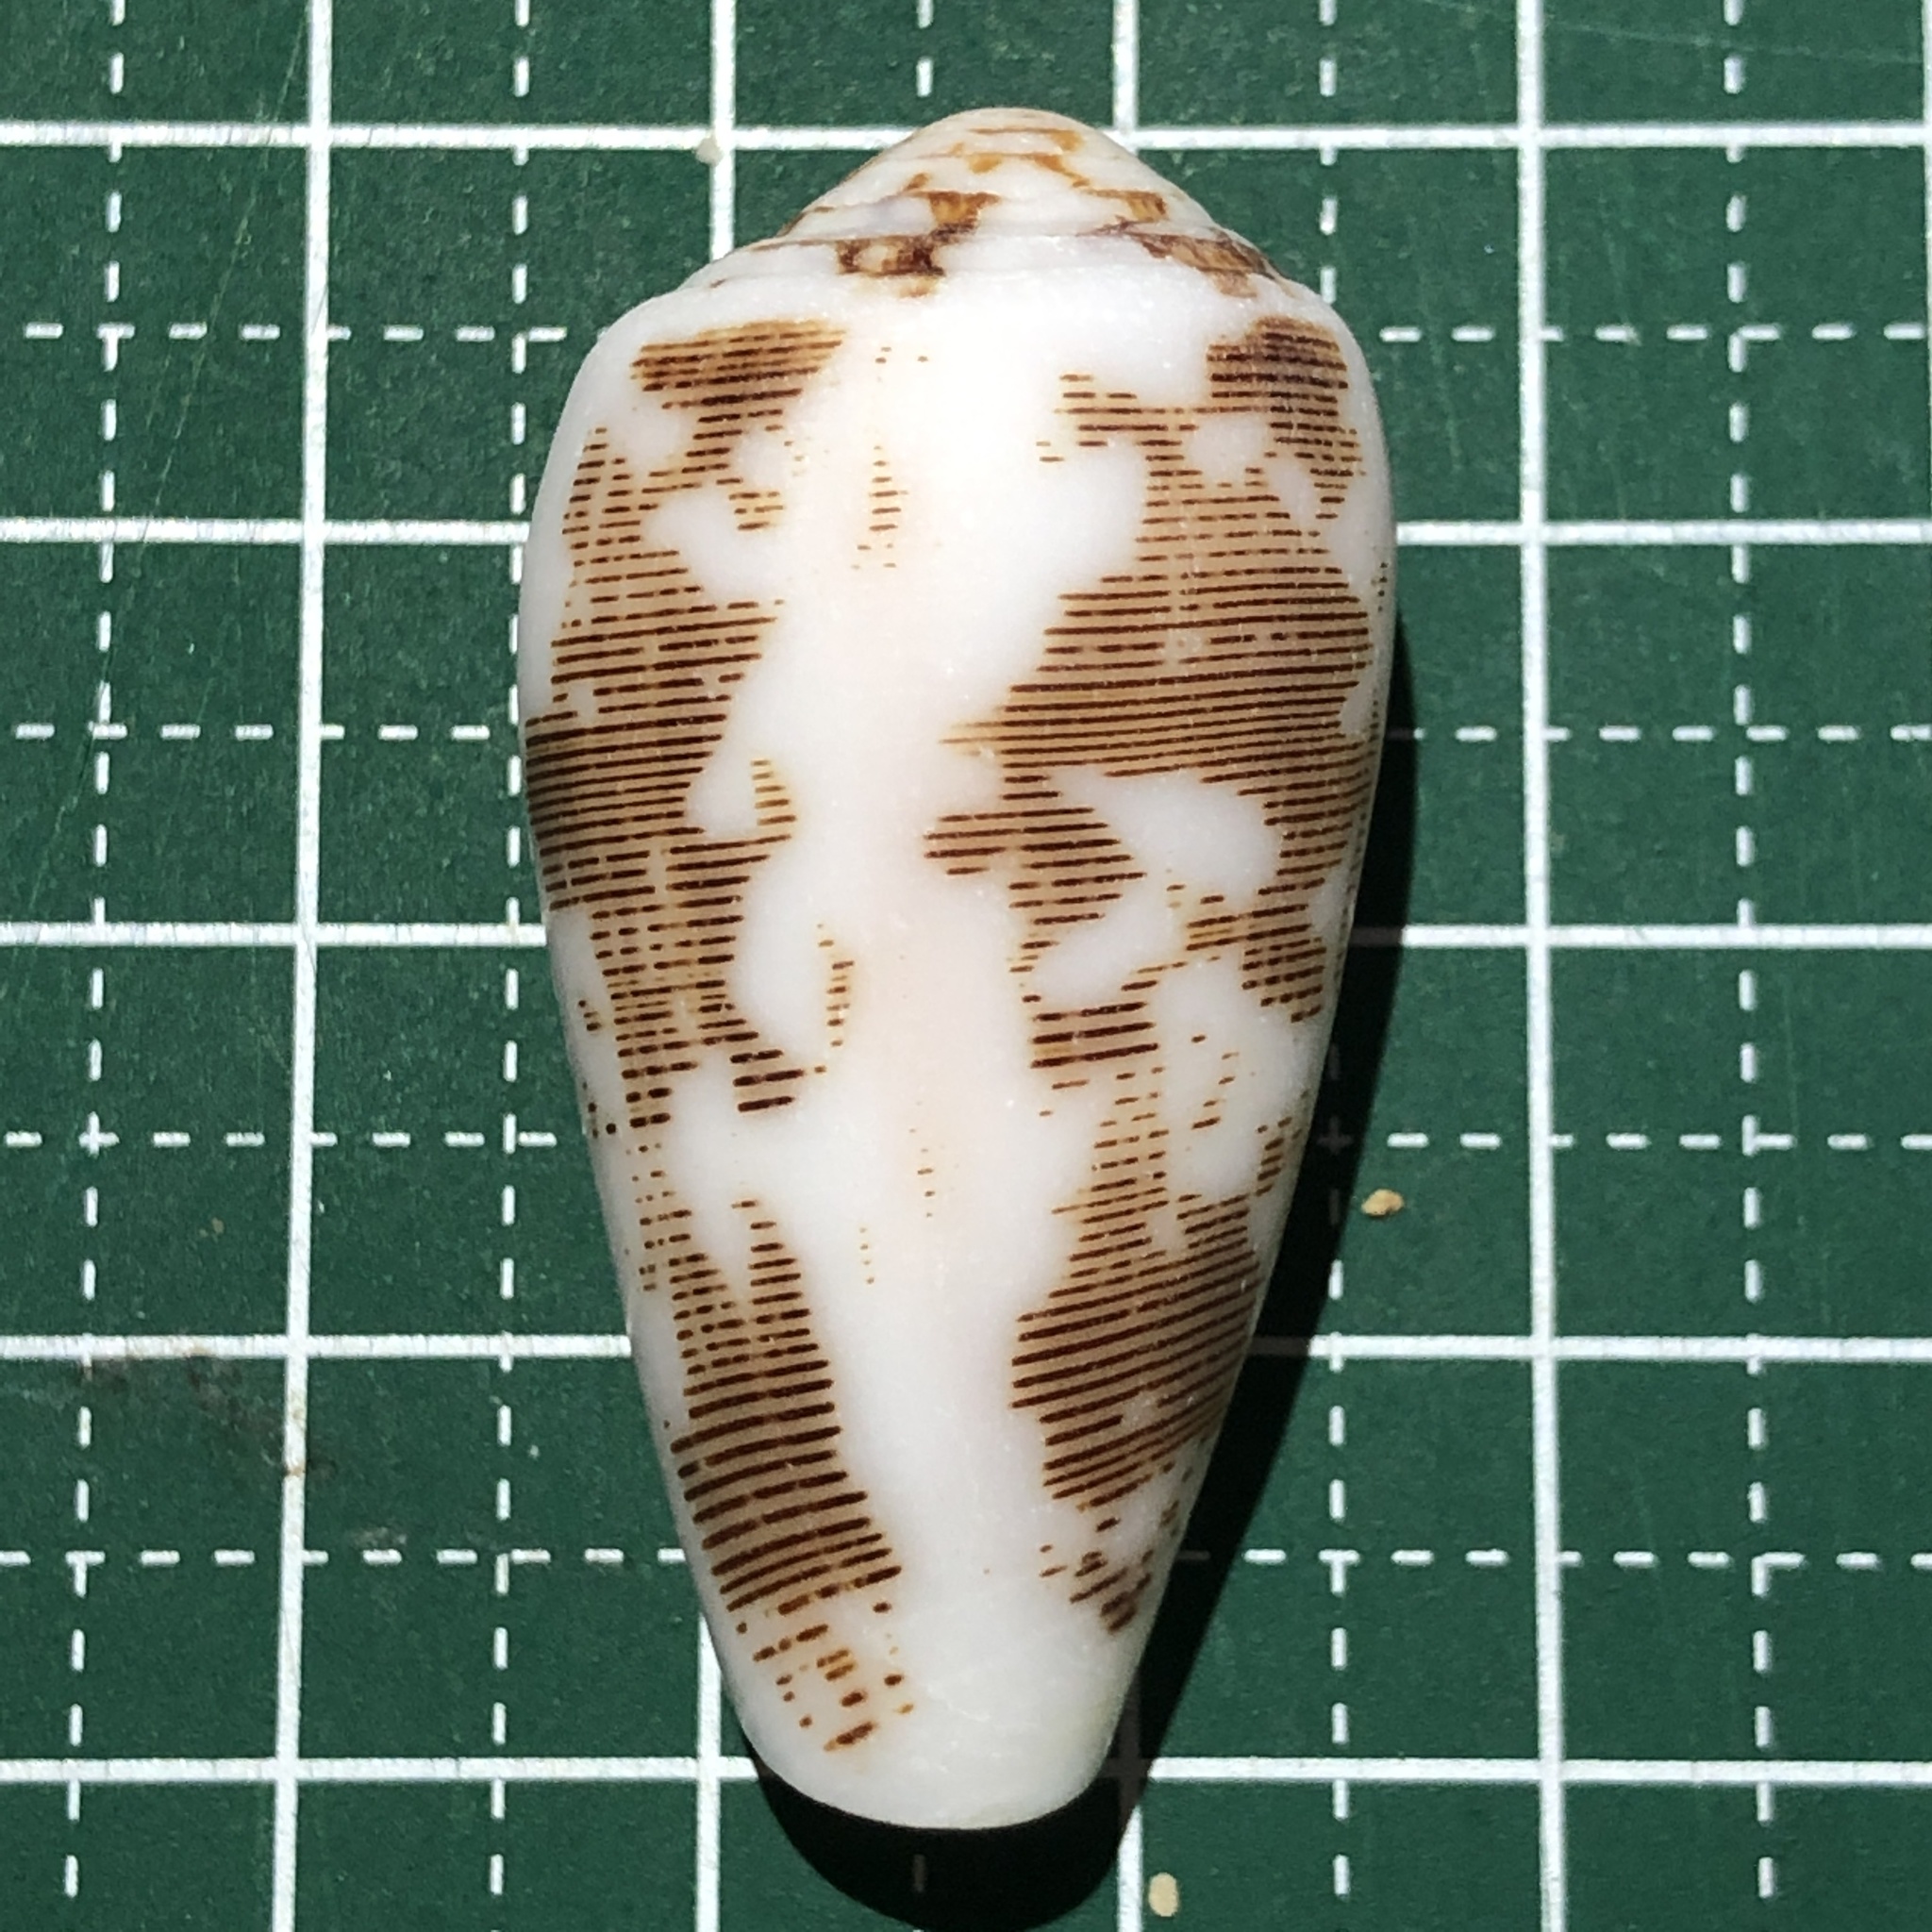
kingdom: Animalia
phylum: Mollusca
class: Gastropoda
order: Neogastropoda
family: Conidae
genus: Conus
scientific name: Conus striatus
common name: Striated cone
